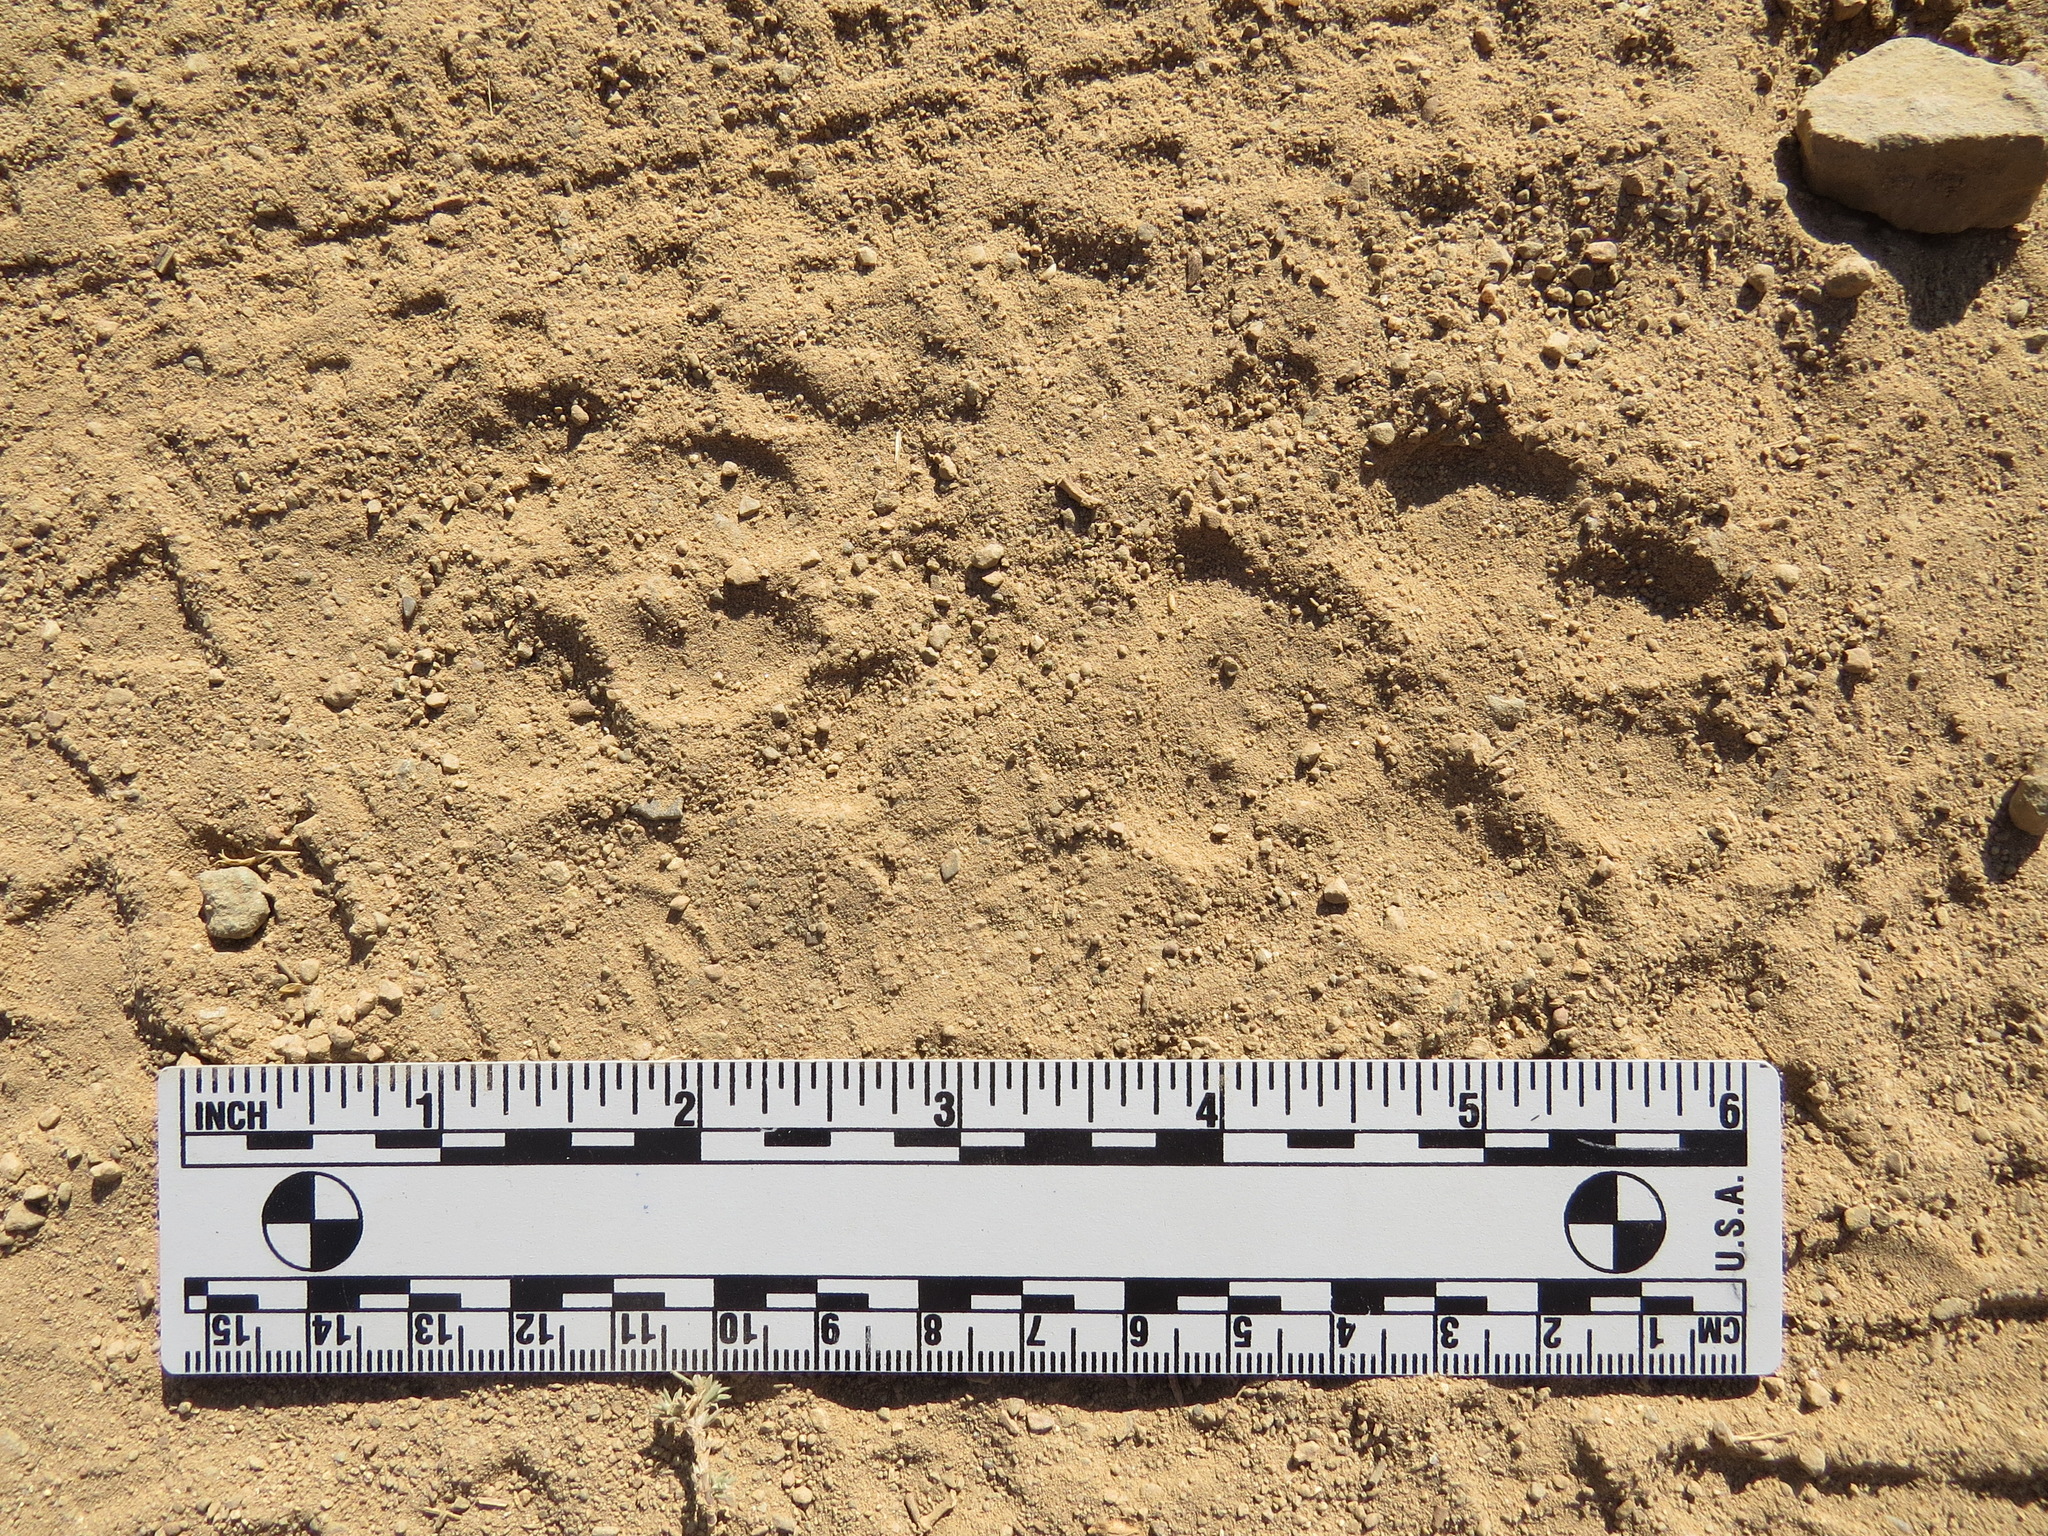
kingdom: Animalia
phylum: Chordata
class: Mammalia
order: Carnivora
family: Canidae
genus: Canis
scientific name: Canis latrans
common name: Coyote
